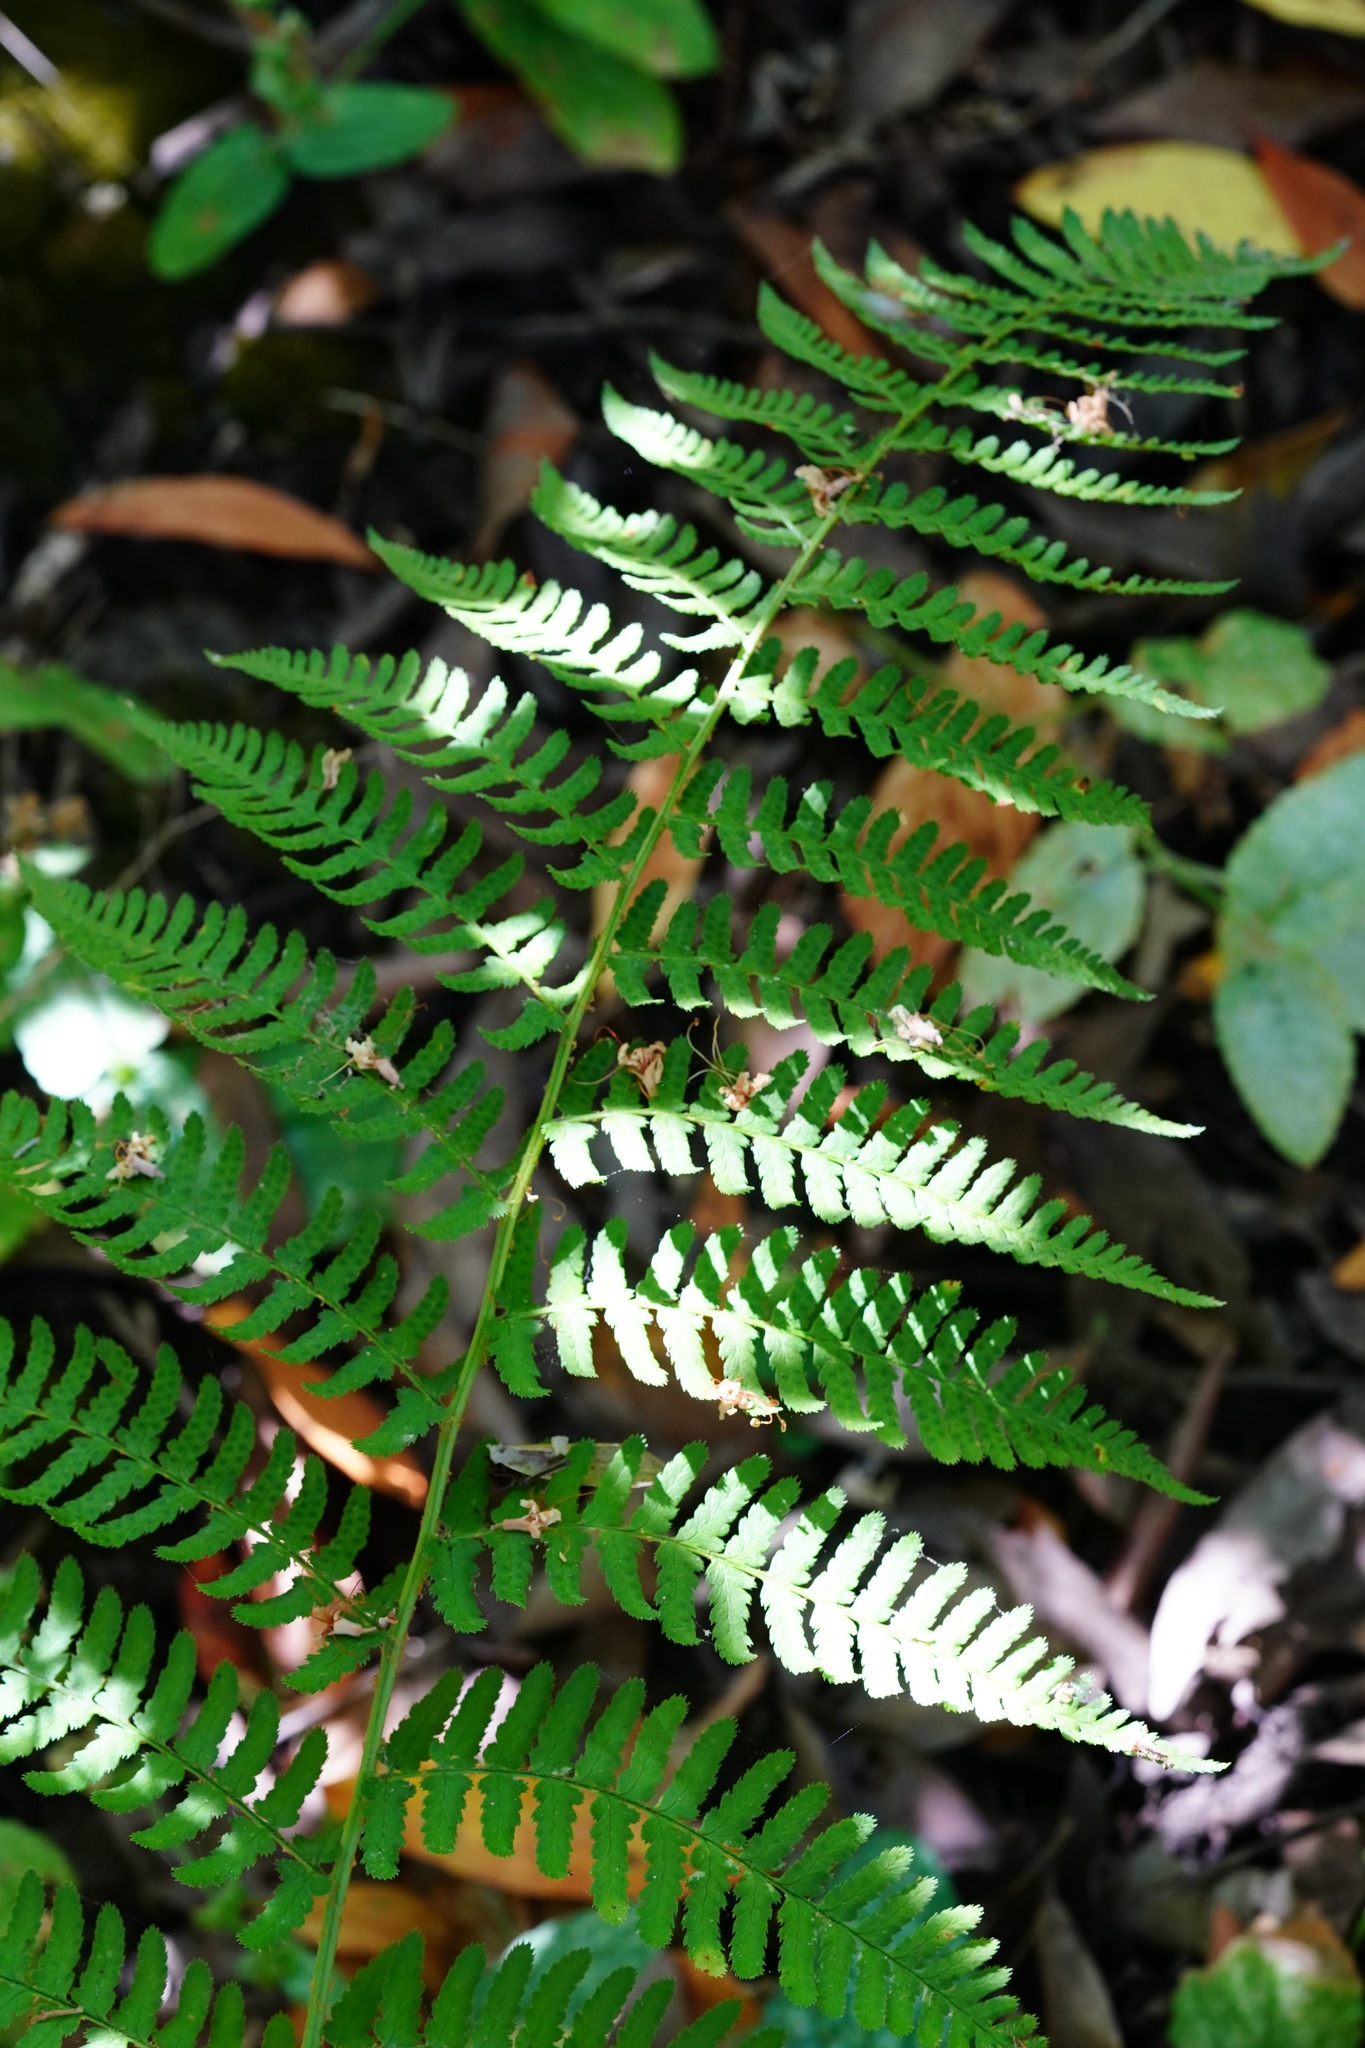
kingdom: Plantae
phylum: Tracheophyta
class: Polypodiopsida
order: Polypodiales
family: Dryopteridaceae
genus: Dryopteris
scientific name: Dryopteris arguta
